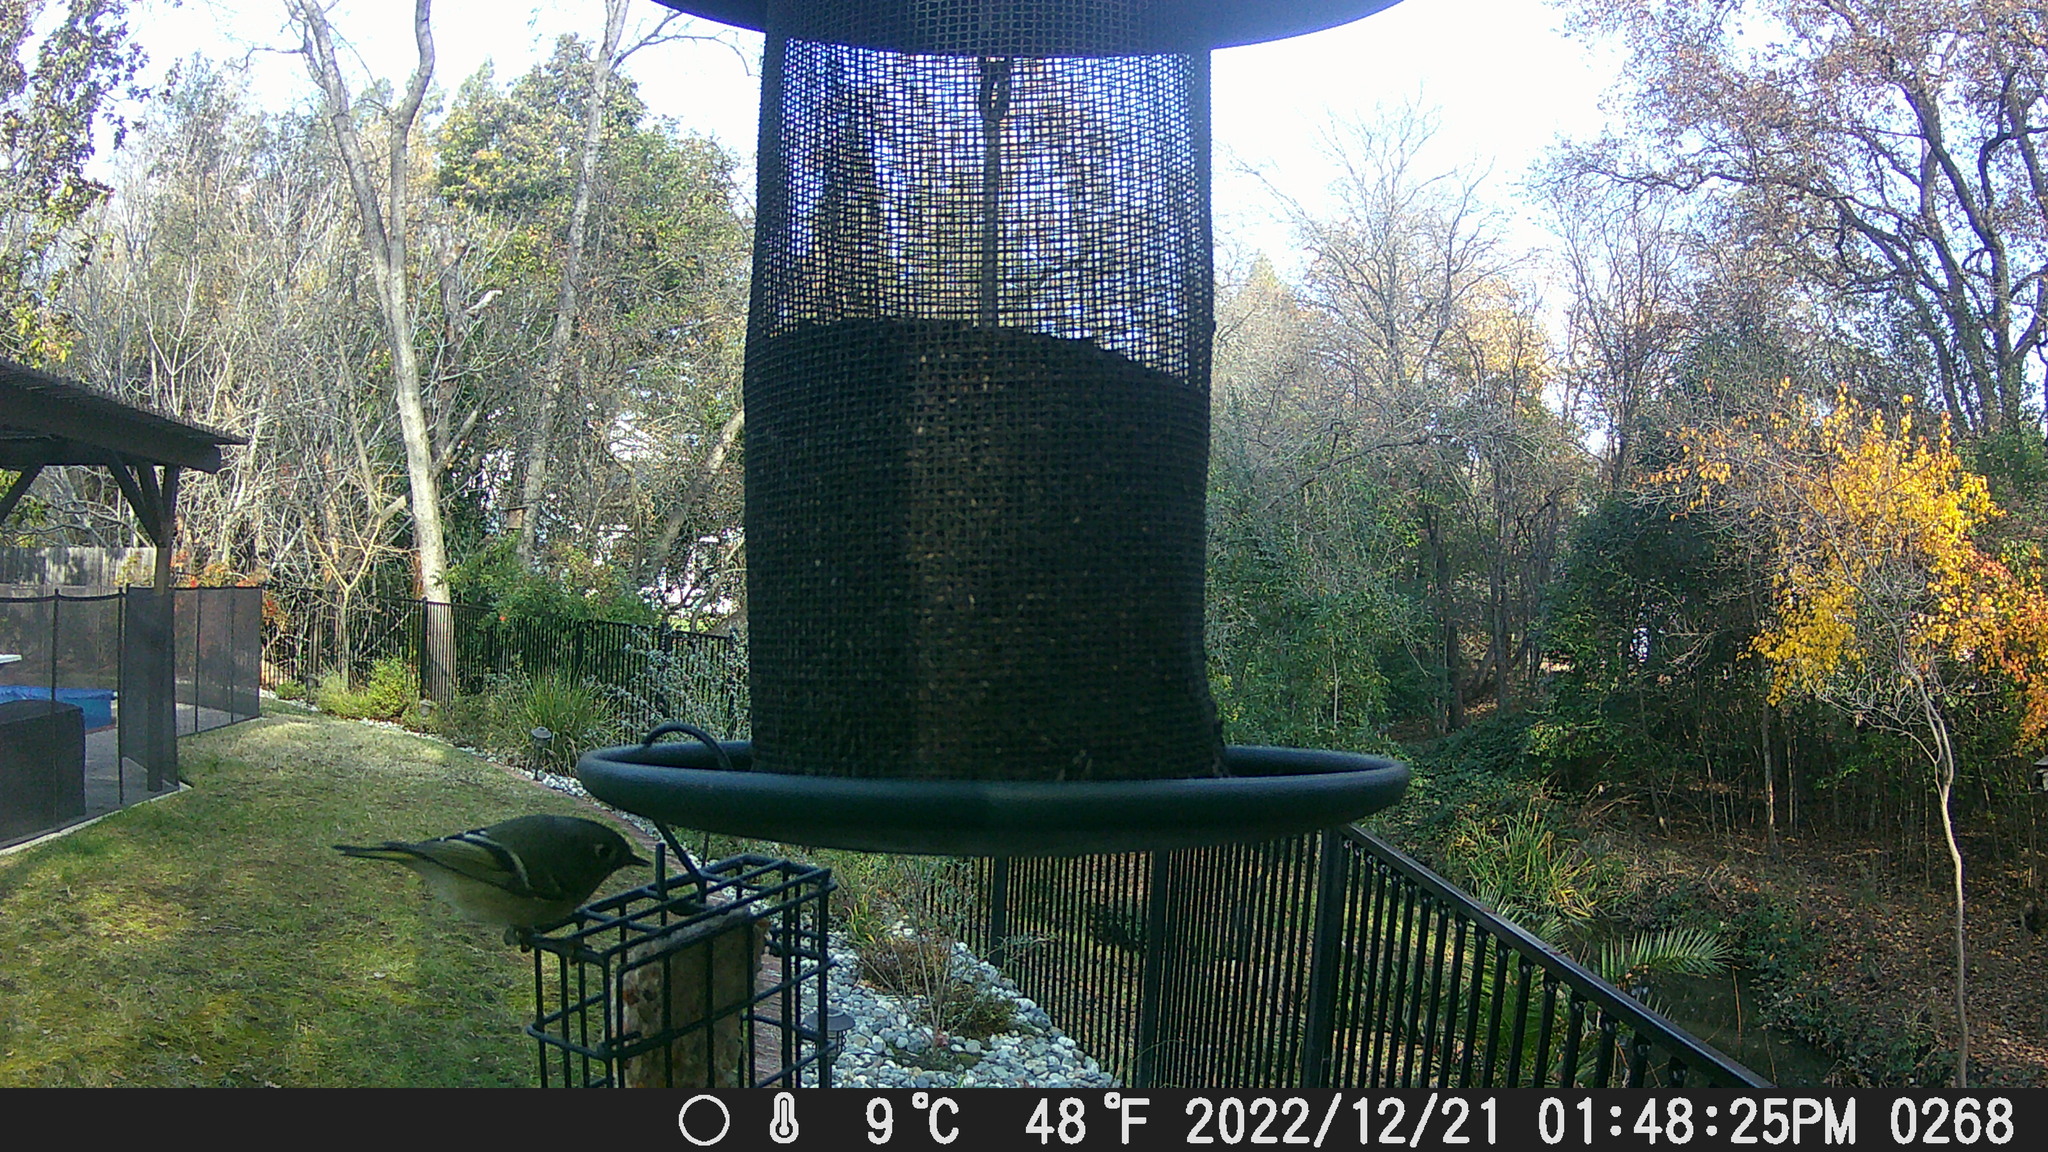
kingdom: Animalia
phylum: Chordata
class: Aves
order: Passeriformes
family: Regulidae
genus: Regulus
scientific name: Regulus calendula
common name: Ruby-crowned kinglet
